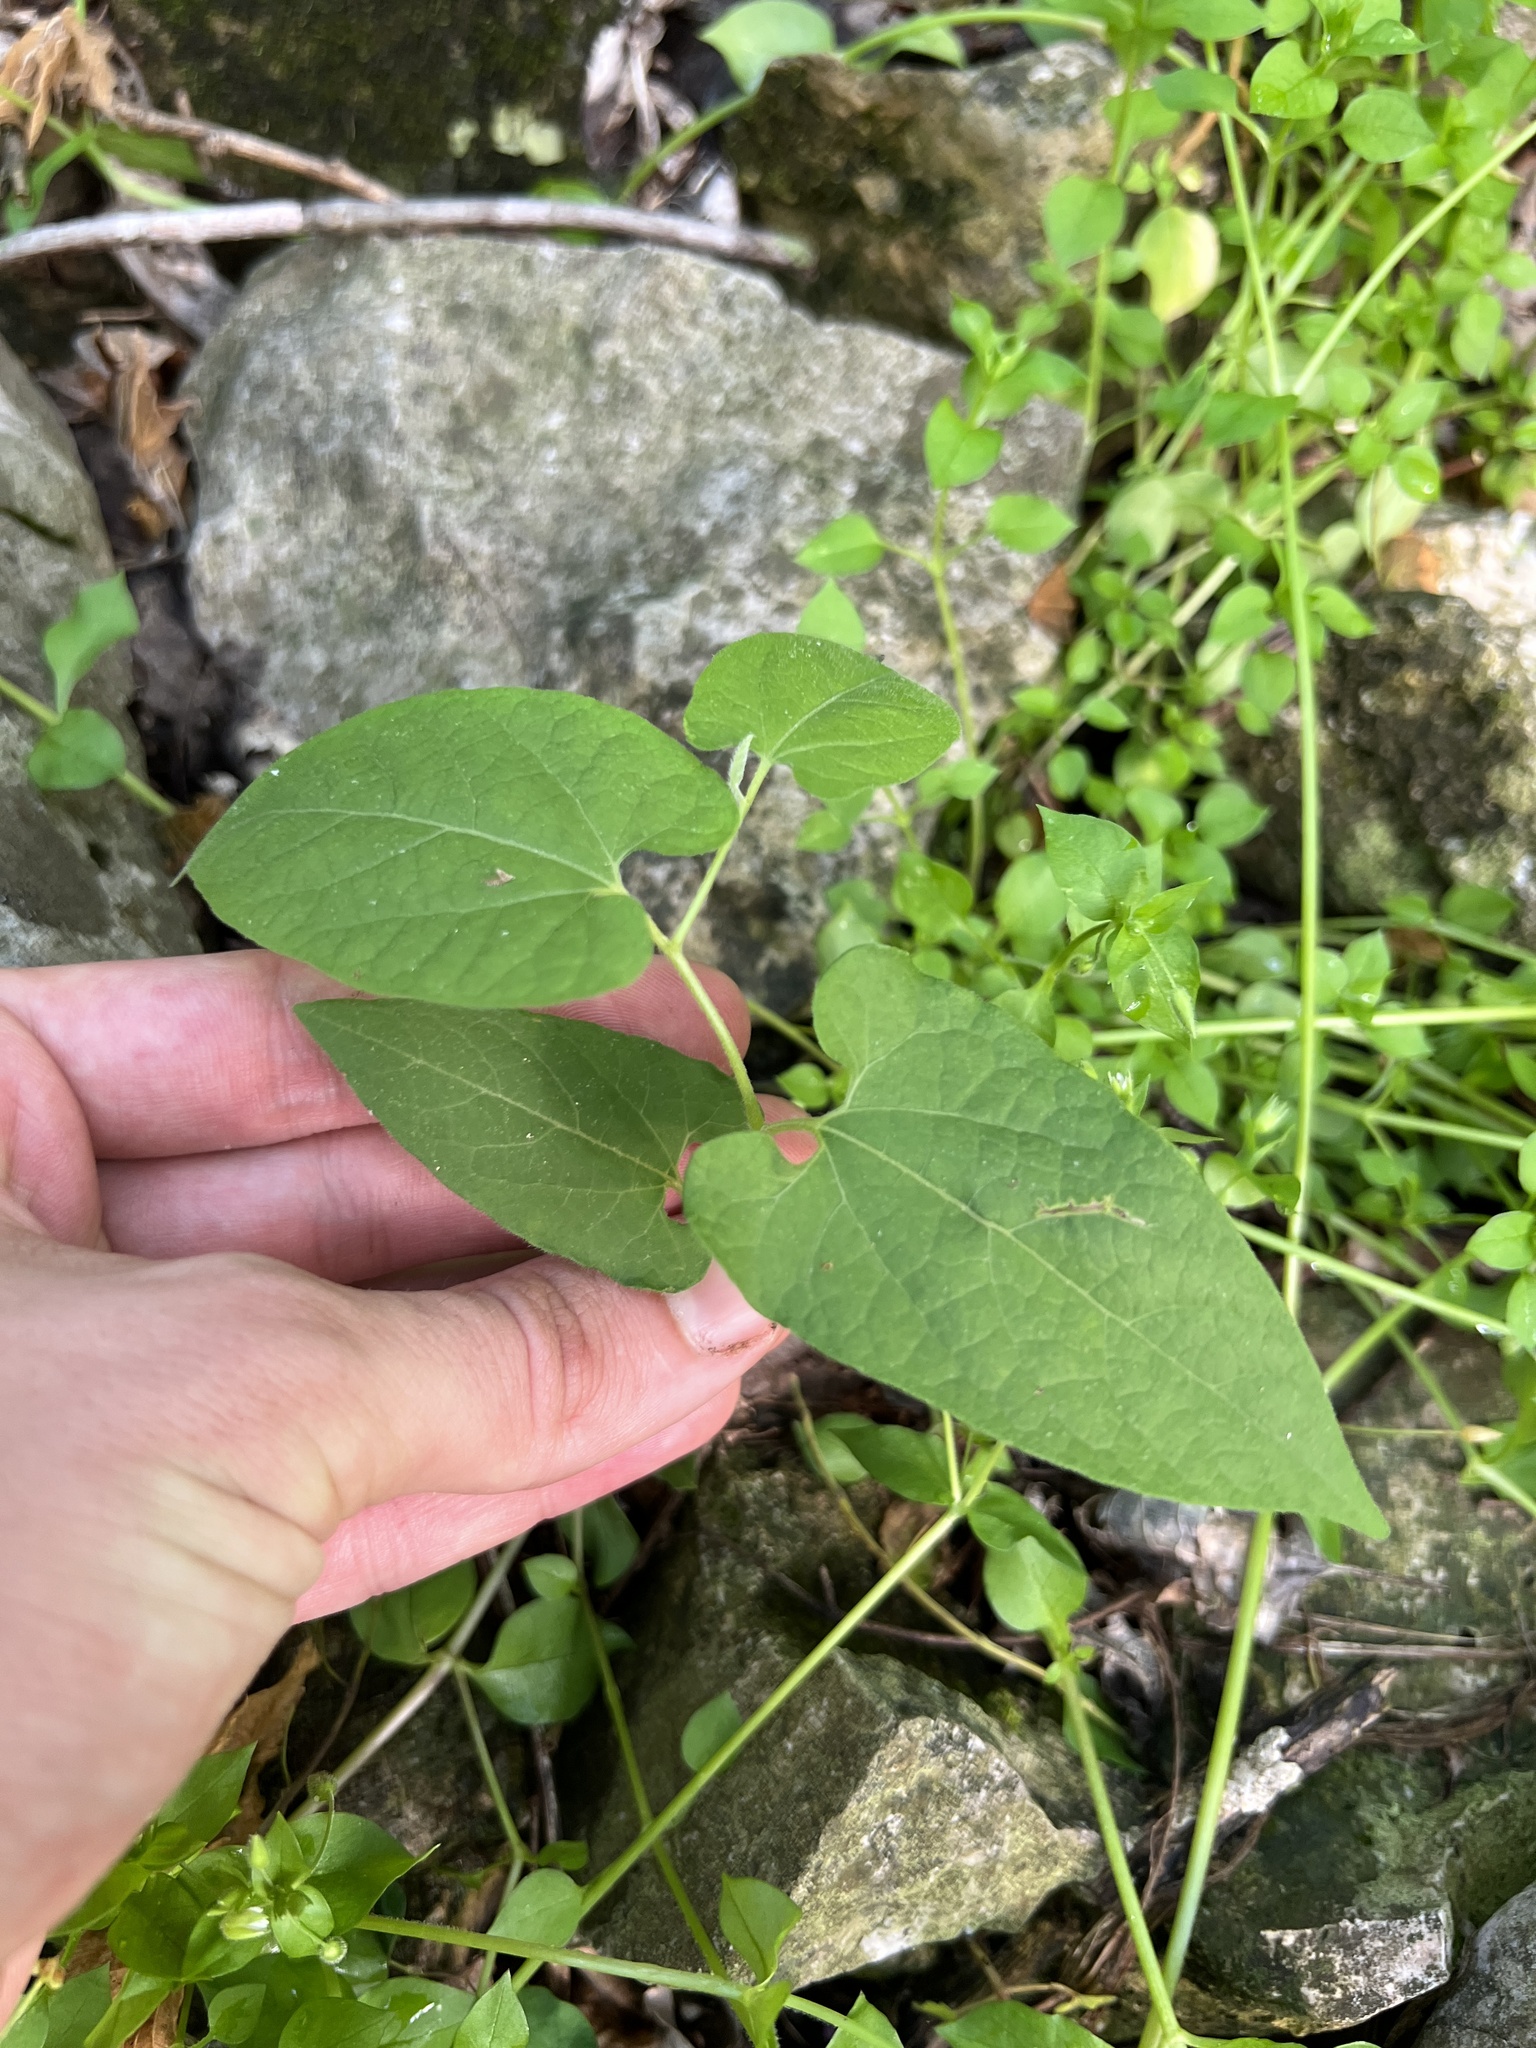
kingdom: Plantae
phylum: Tracheophyta
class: Magnoliopsida
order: Piperales
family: Aristolochiaceae
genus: Endodeca
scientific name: Endodeca serpentaria
